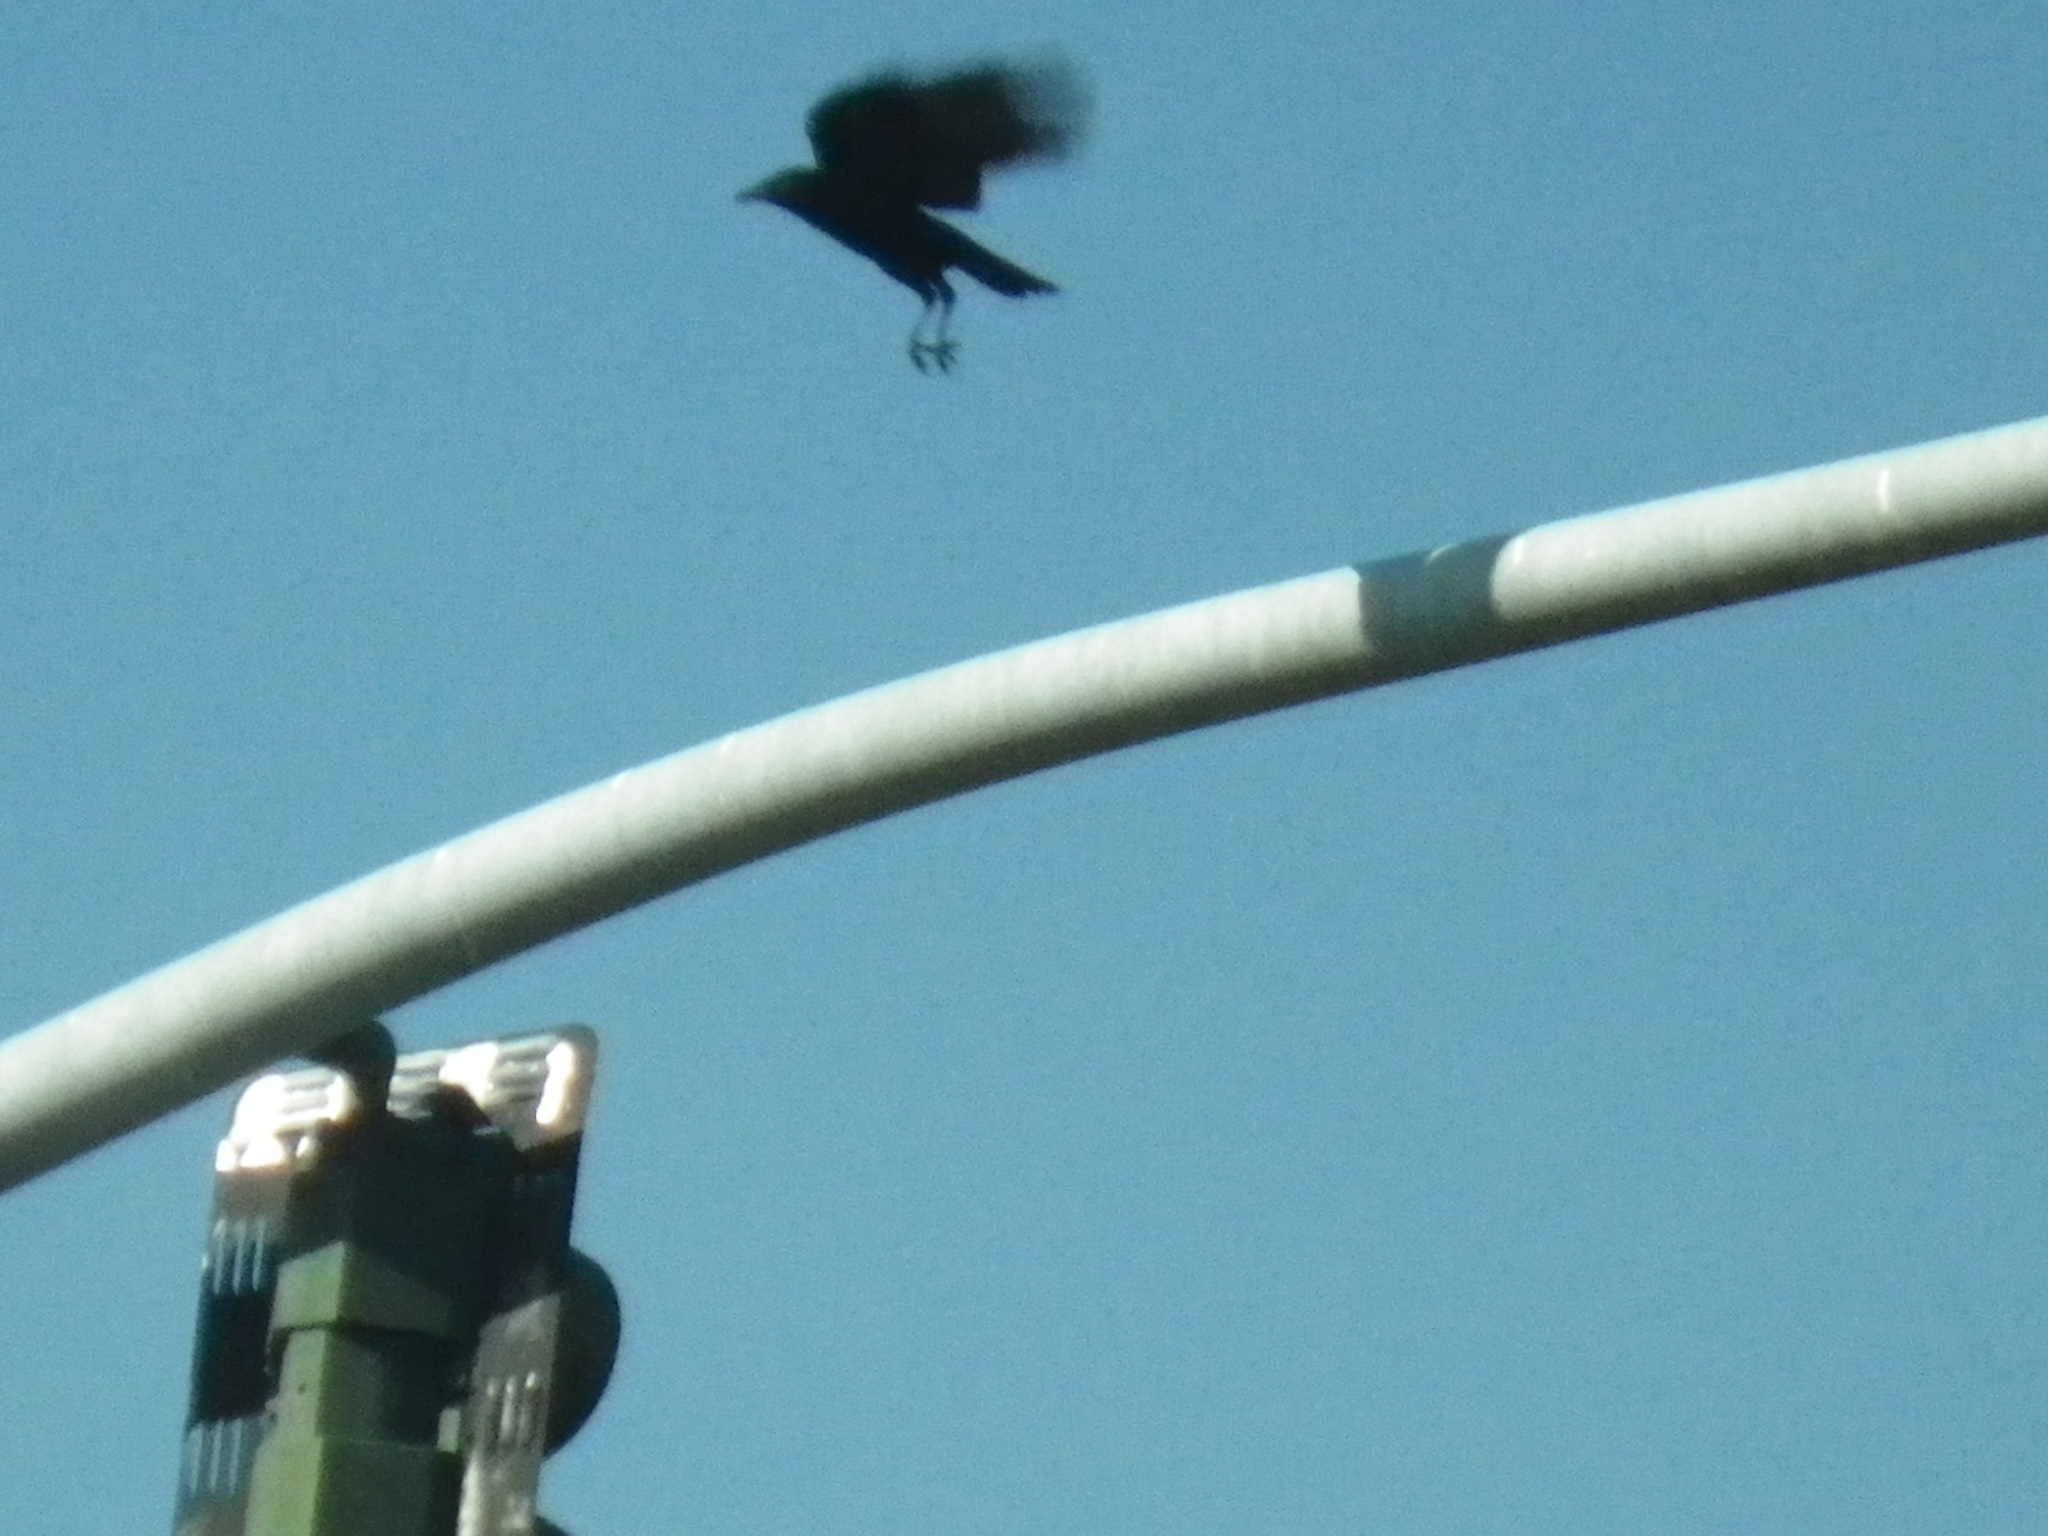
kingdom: Animalia
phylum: Chordata
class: Aves
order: Passeriformes
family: Corvidae
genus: Corvus
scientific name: Corvus brachyrhynchos
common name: American crow
